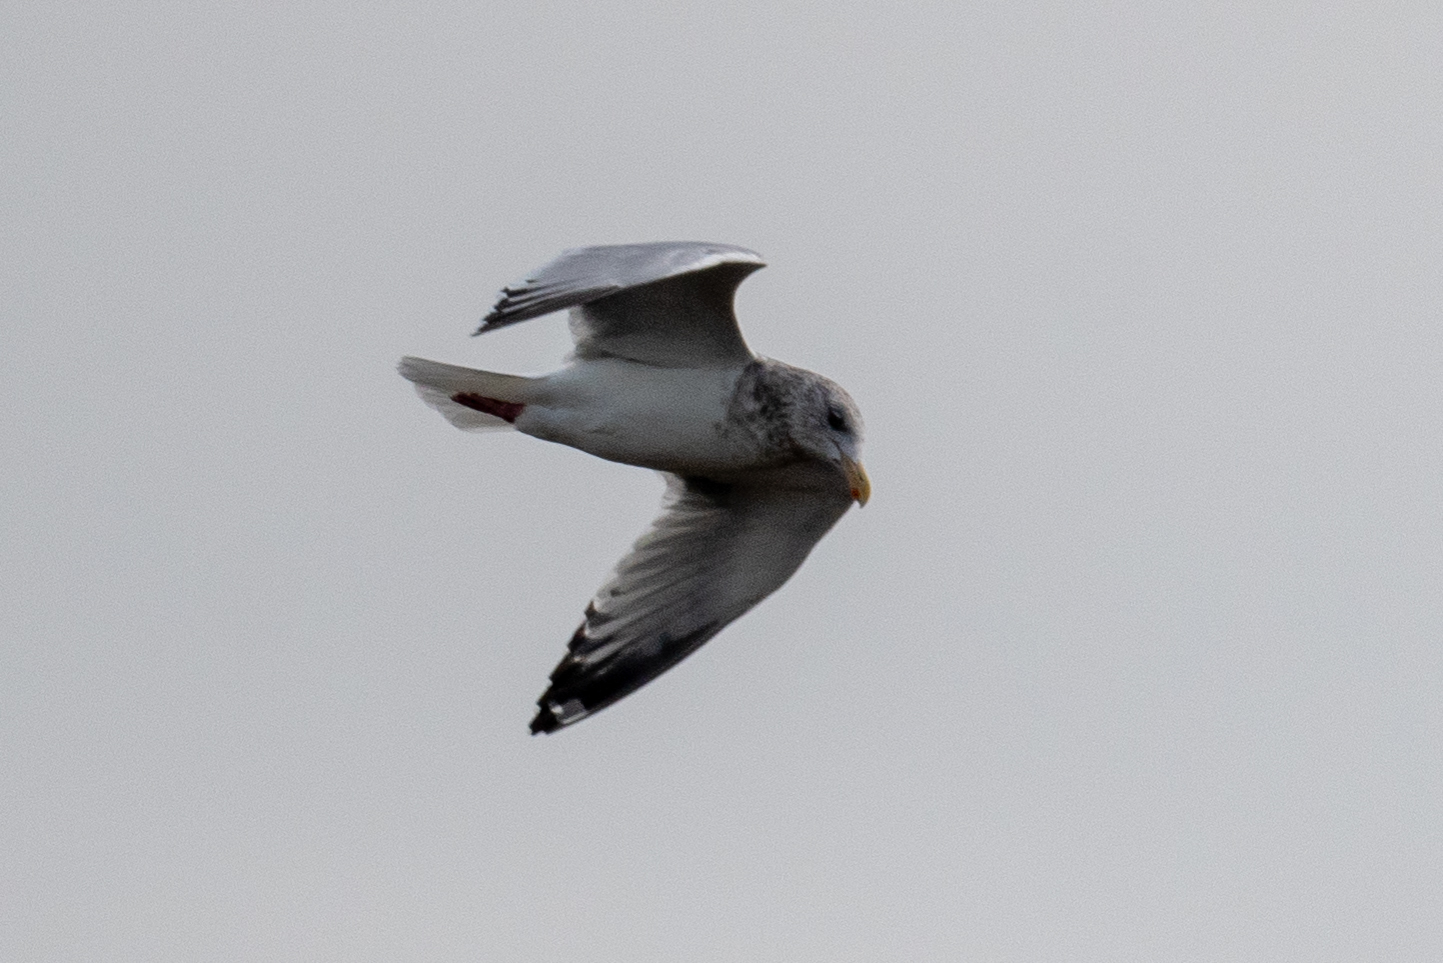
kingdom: Animalia
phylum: Chordata
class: Aves
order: Charadriiformes
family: Laridae
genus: Larus
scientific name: Larus argentatus
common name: Herring gull
